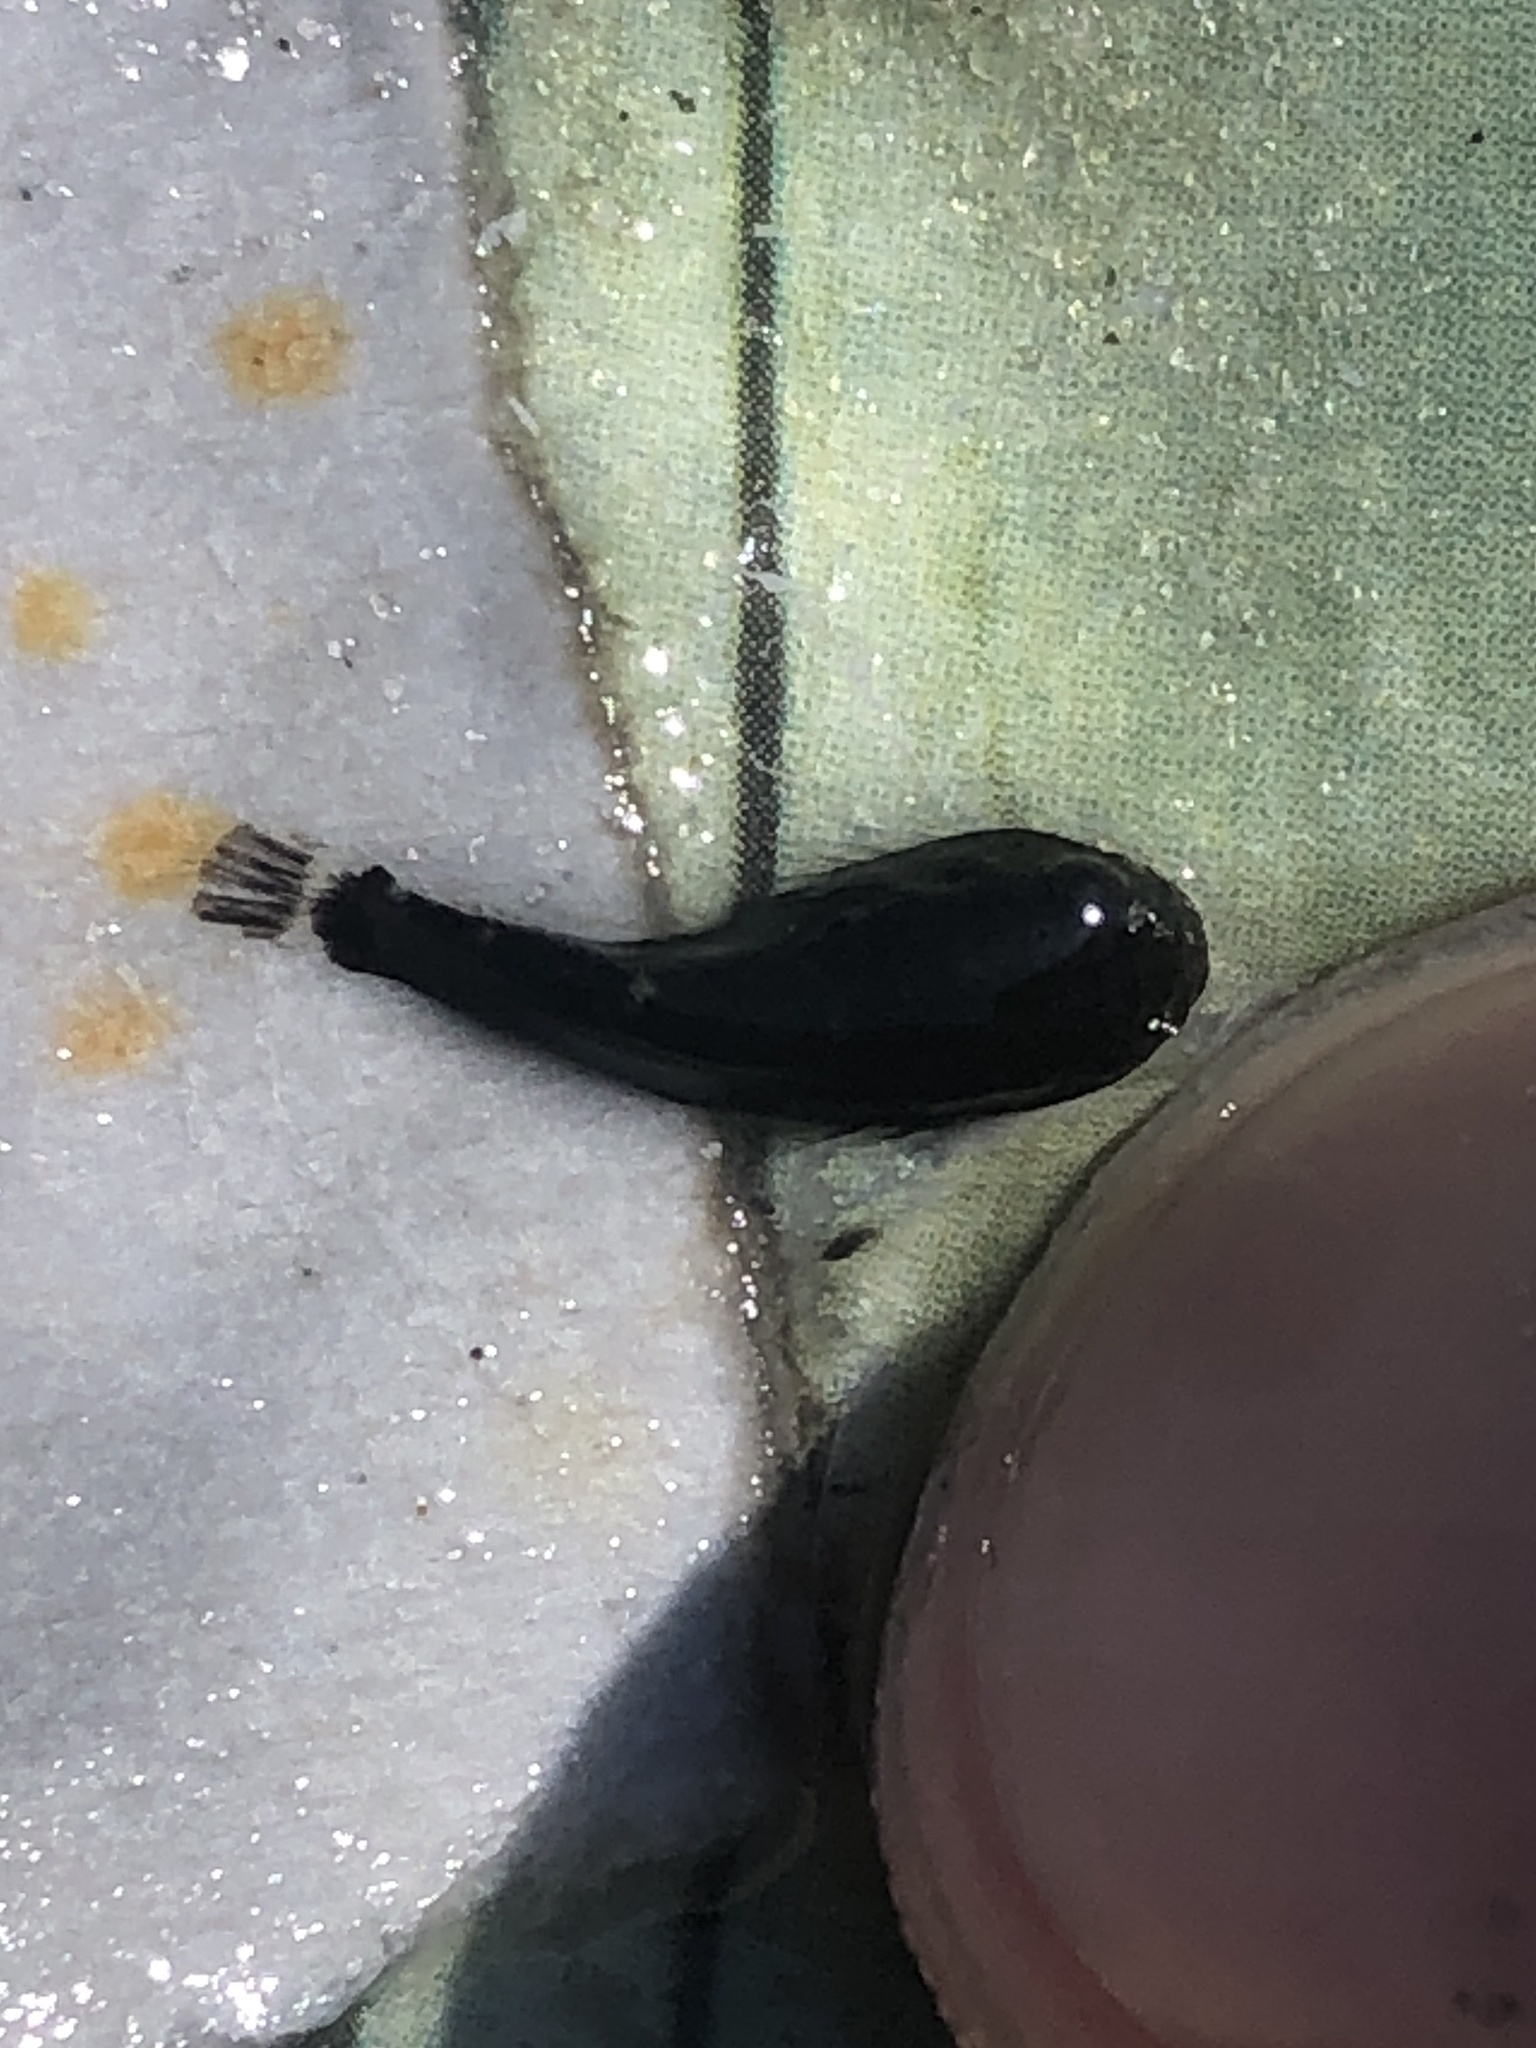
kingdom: Animalia
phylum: Chordata
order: Gobiesociformes
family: Gobiesocidae
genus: Gobiesox
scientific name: Gobiesox strumosus
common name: Skilletfish
